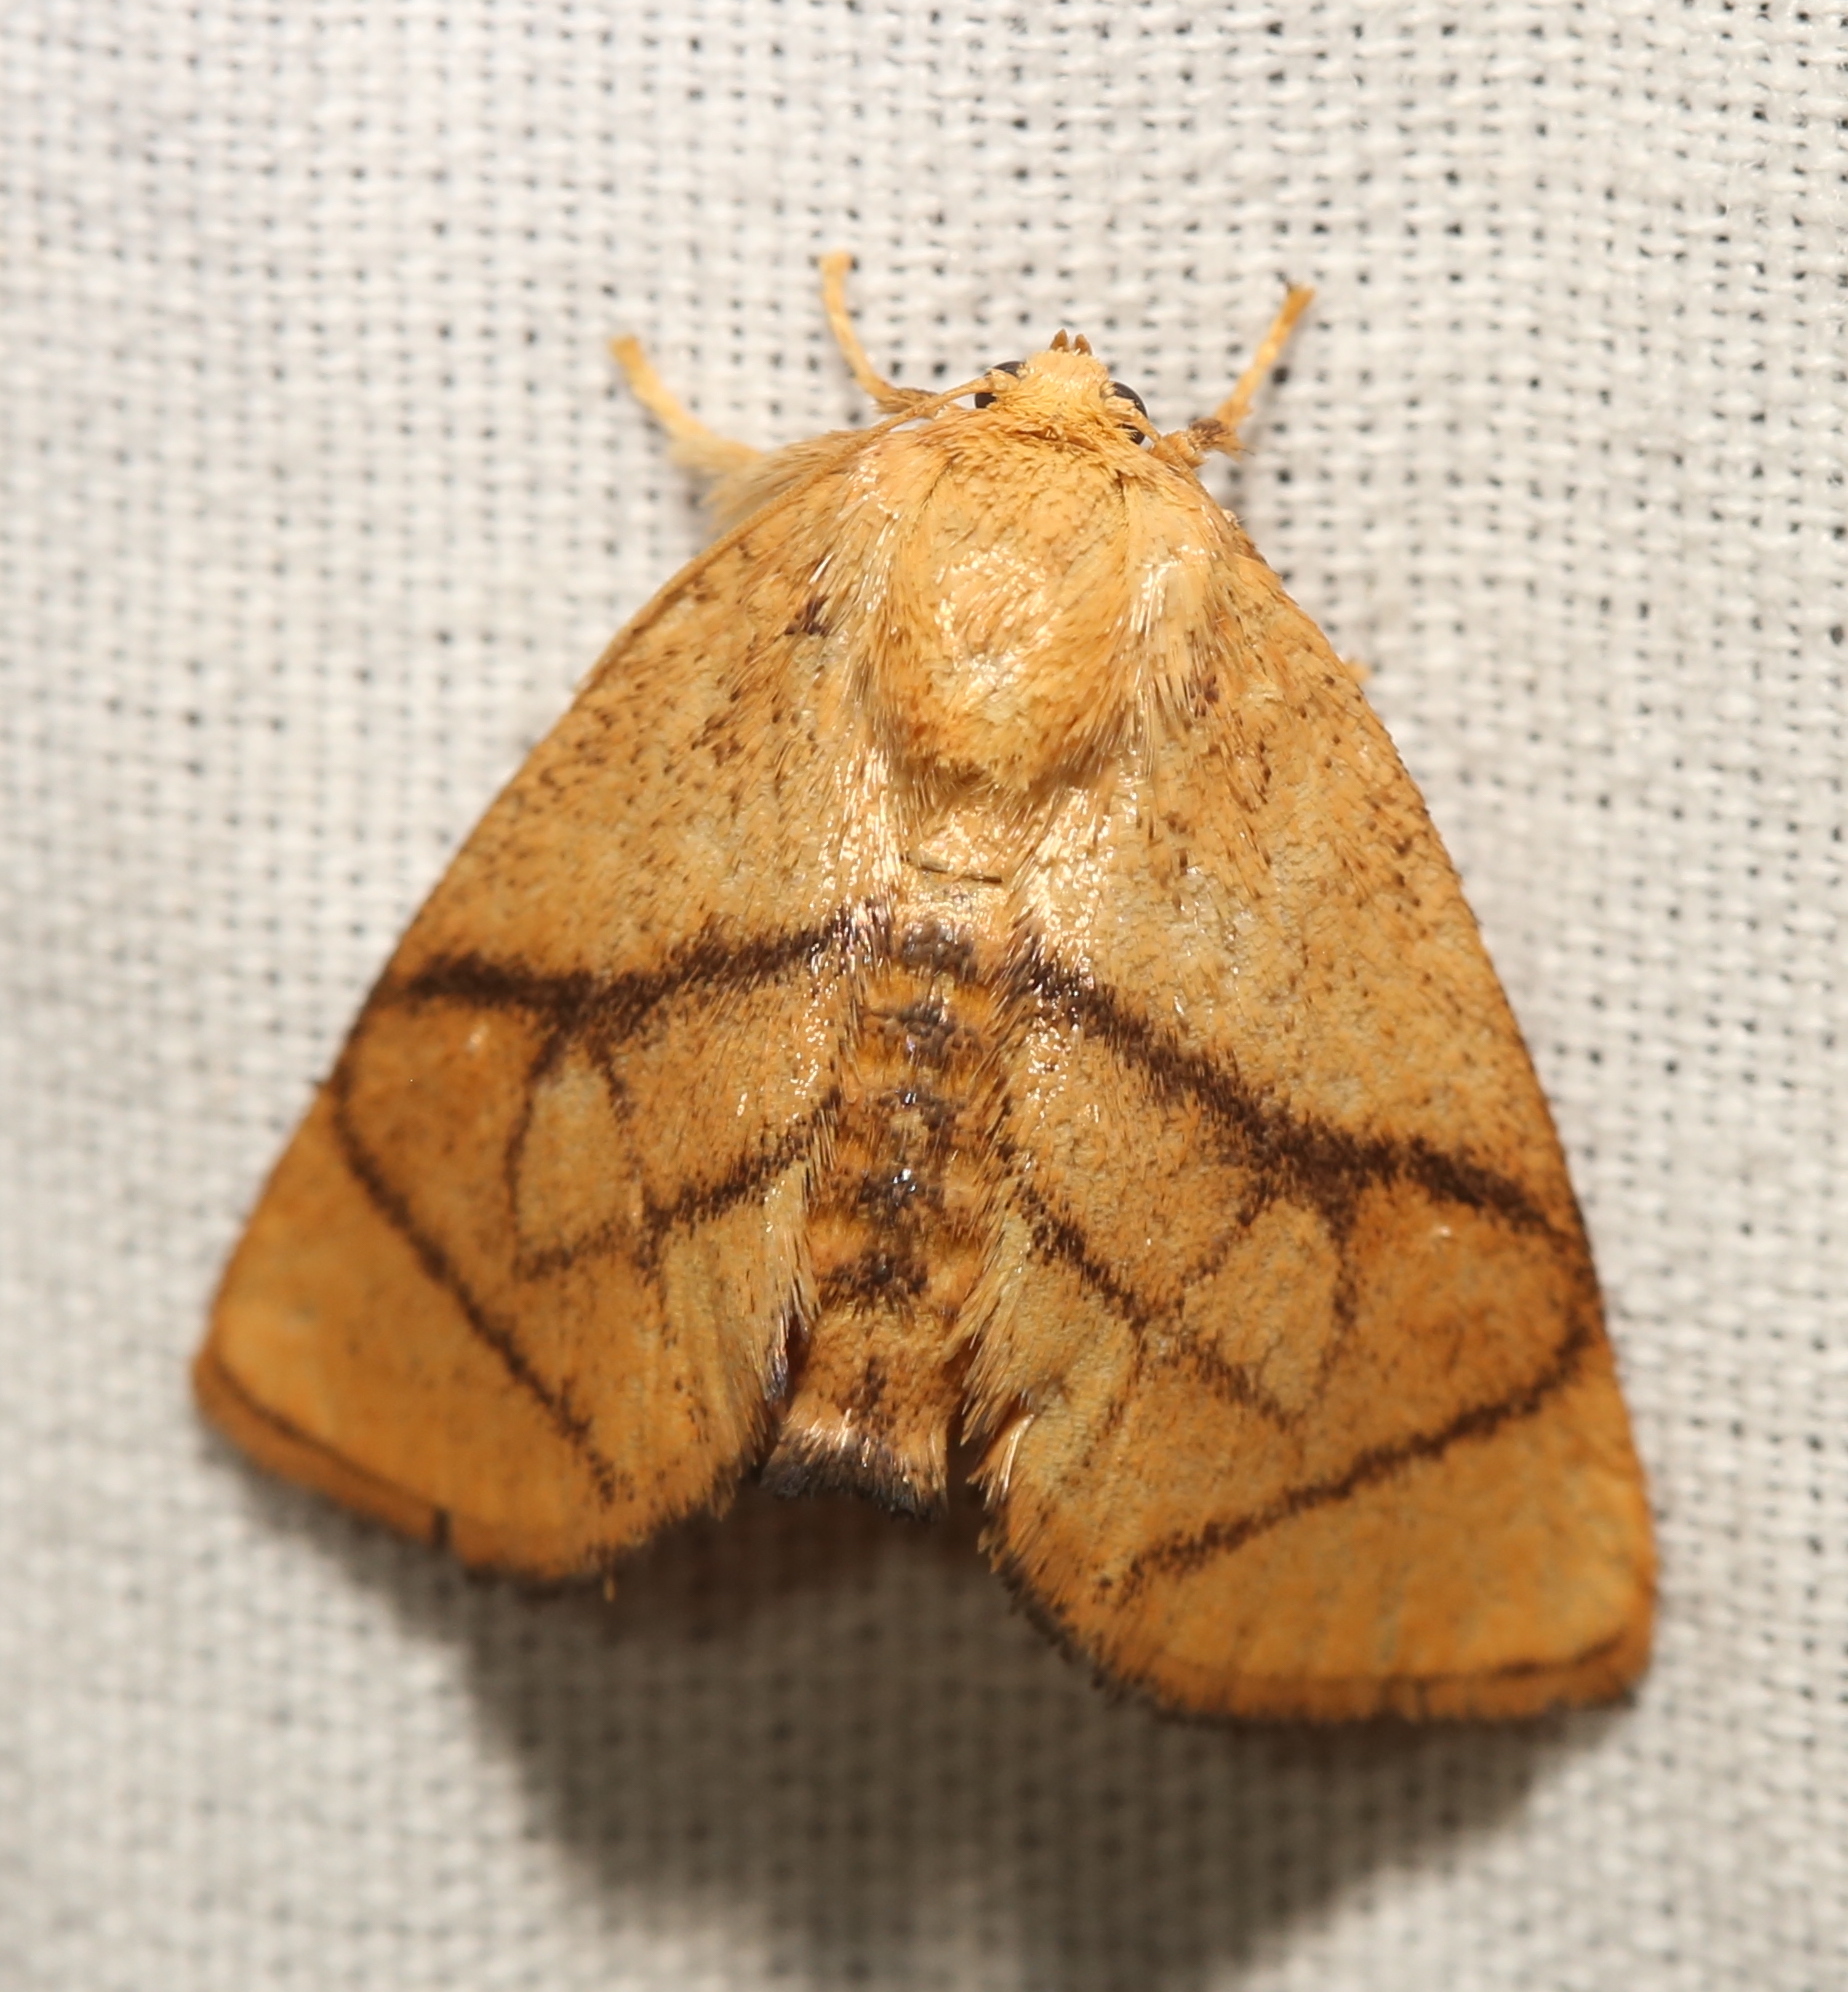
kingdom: Animalia
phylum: Arthropoda
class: Insecta
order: Lepidoptera
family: Limacodidae
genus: Apoda
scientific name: Apoda y-inversa
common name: Yellow-collared slug moth
